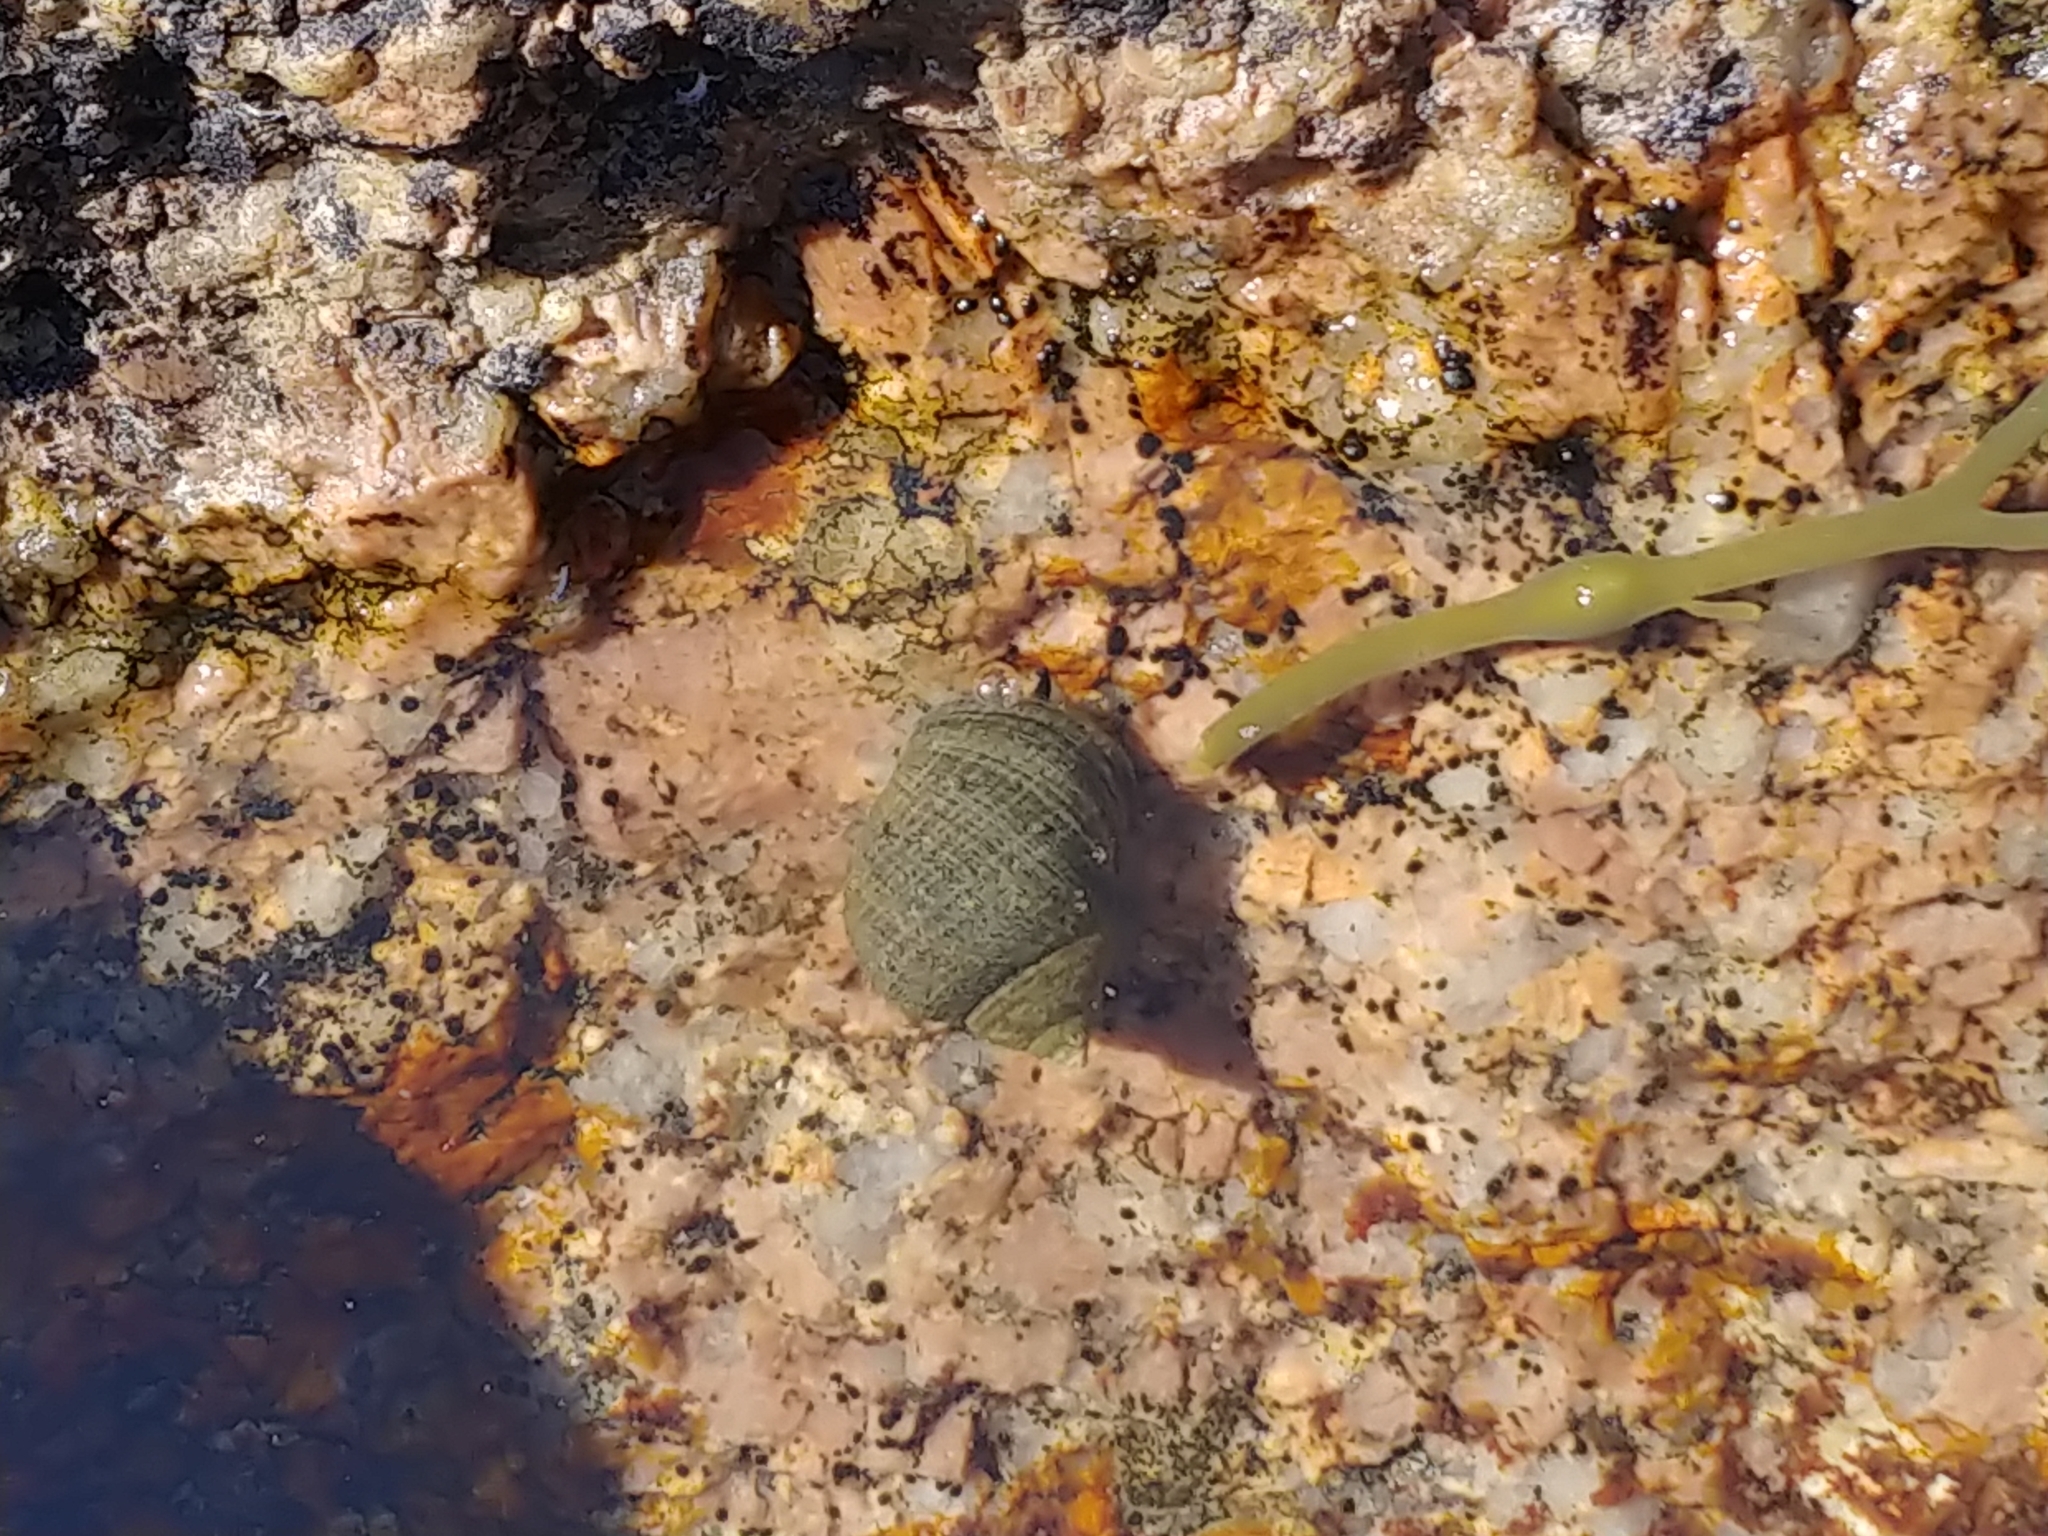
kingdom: Animalia
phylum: Mollusca
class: Gastropoda
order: Littorinimorpha
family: Littorinidae
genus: Littorina
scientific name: Littorina littorea
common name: Common periwinkle
